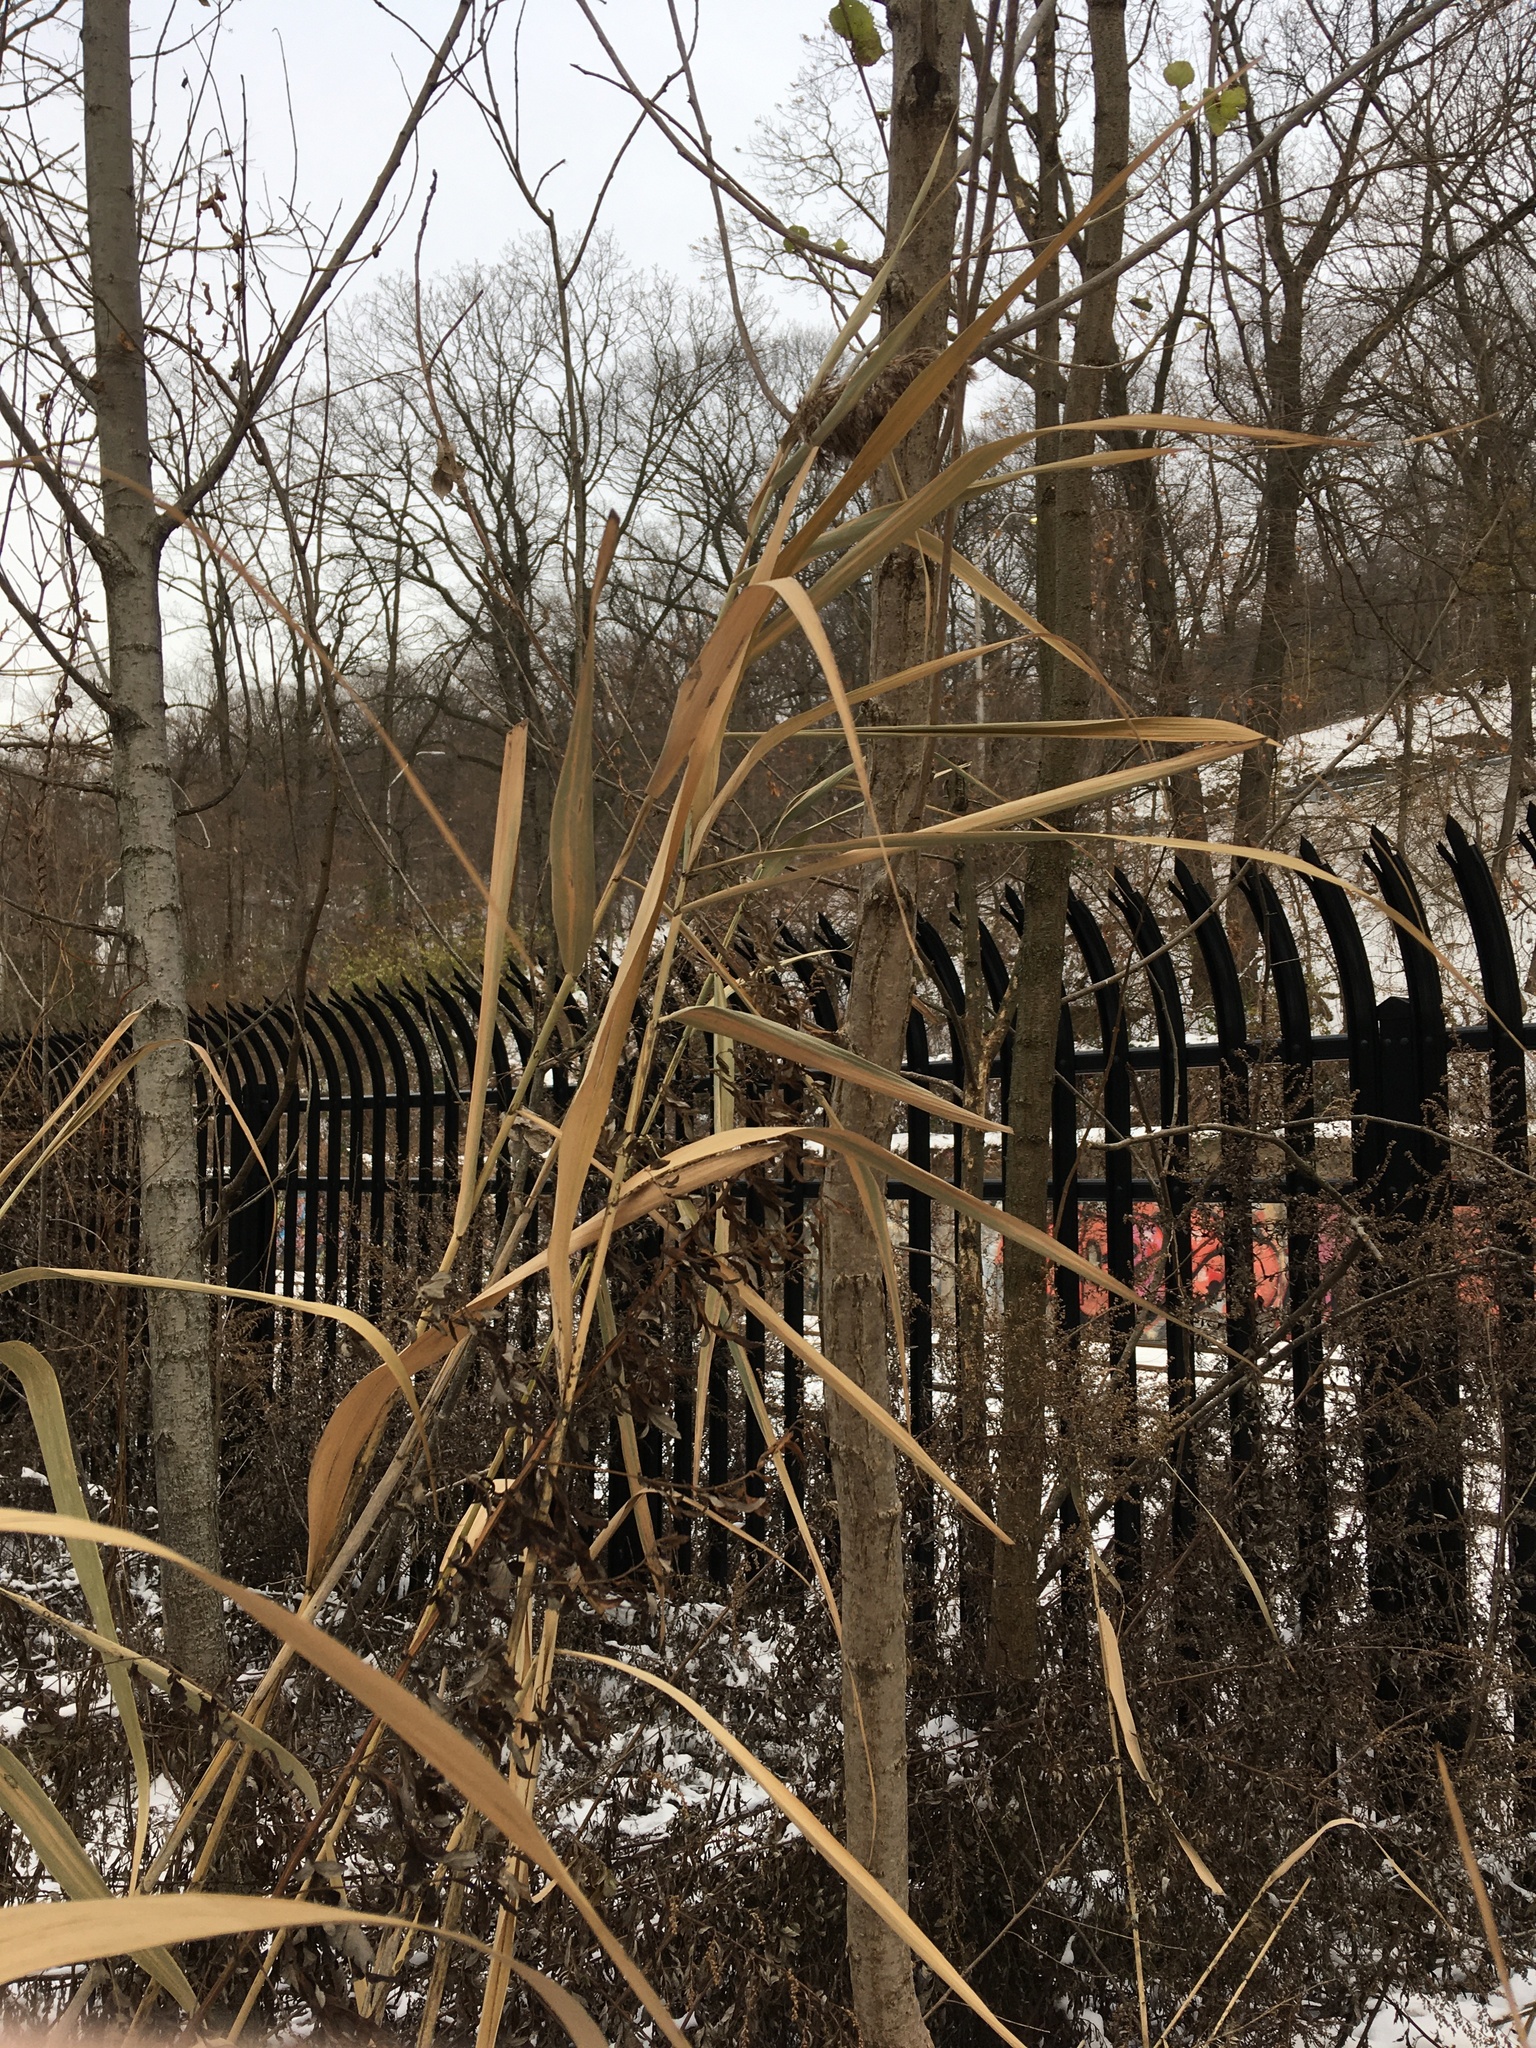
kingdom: Plantae
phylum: Tracheophyta
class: Liliopsida
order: Poales
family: Poaceae
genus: Phragmites
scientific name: Phragmites australis
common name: Common reed
